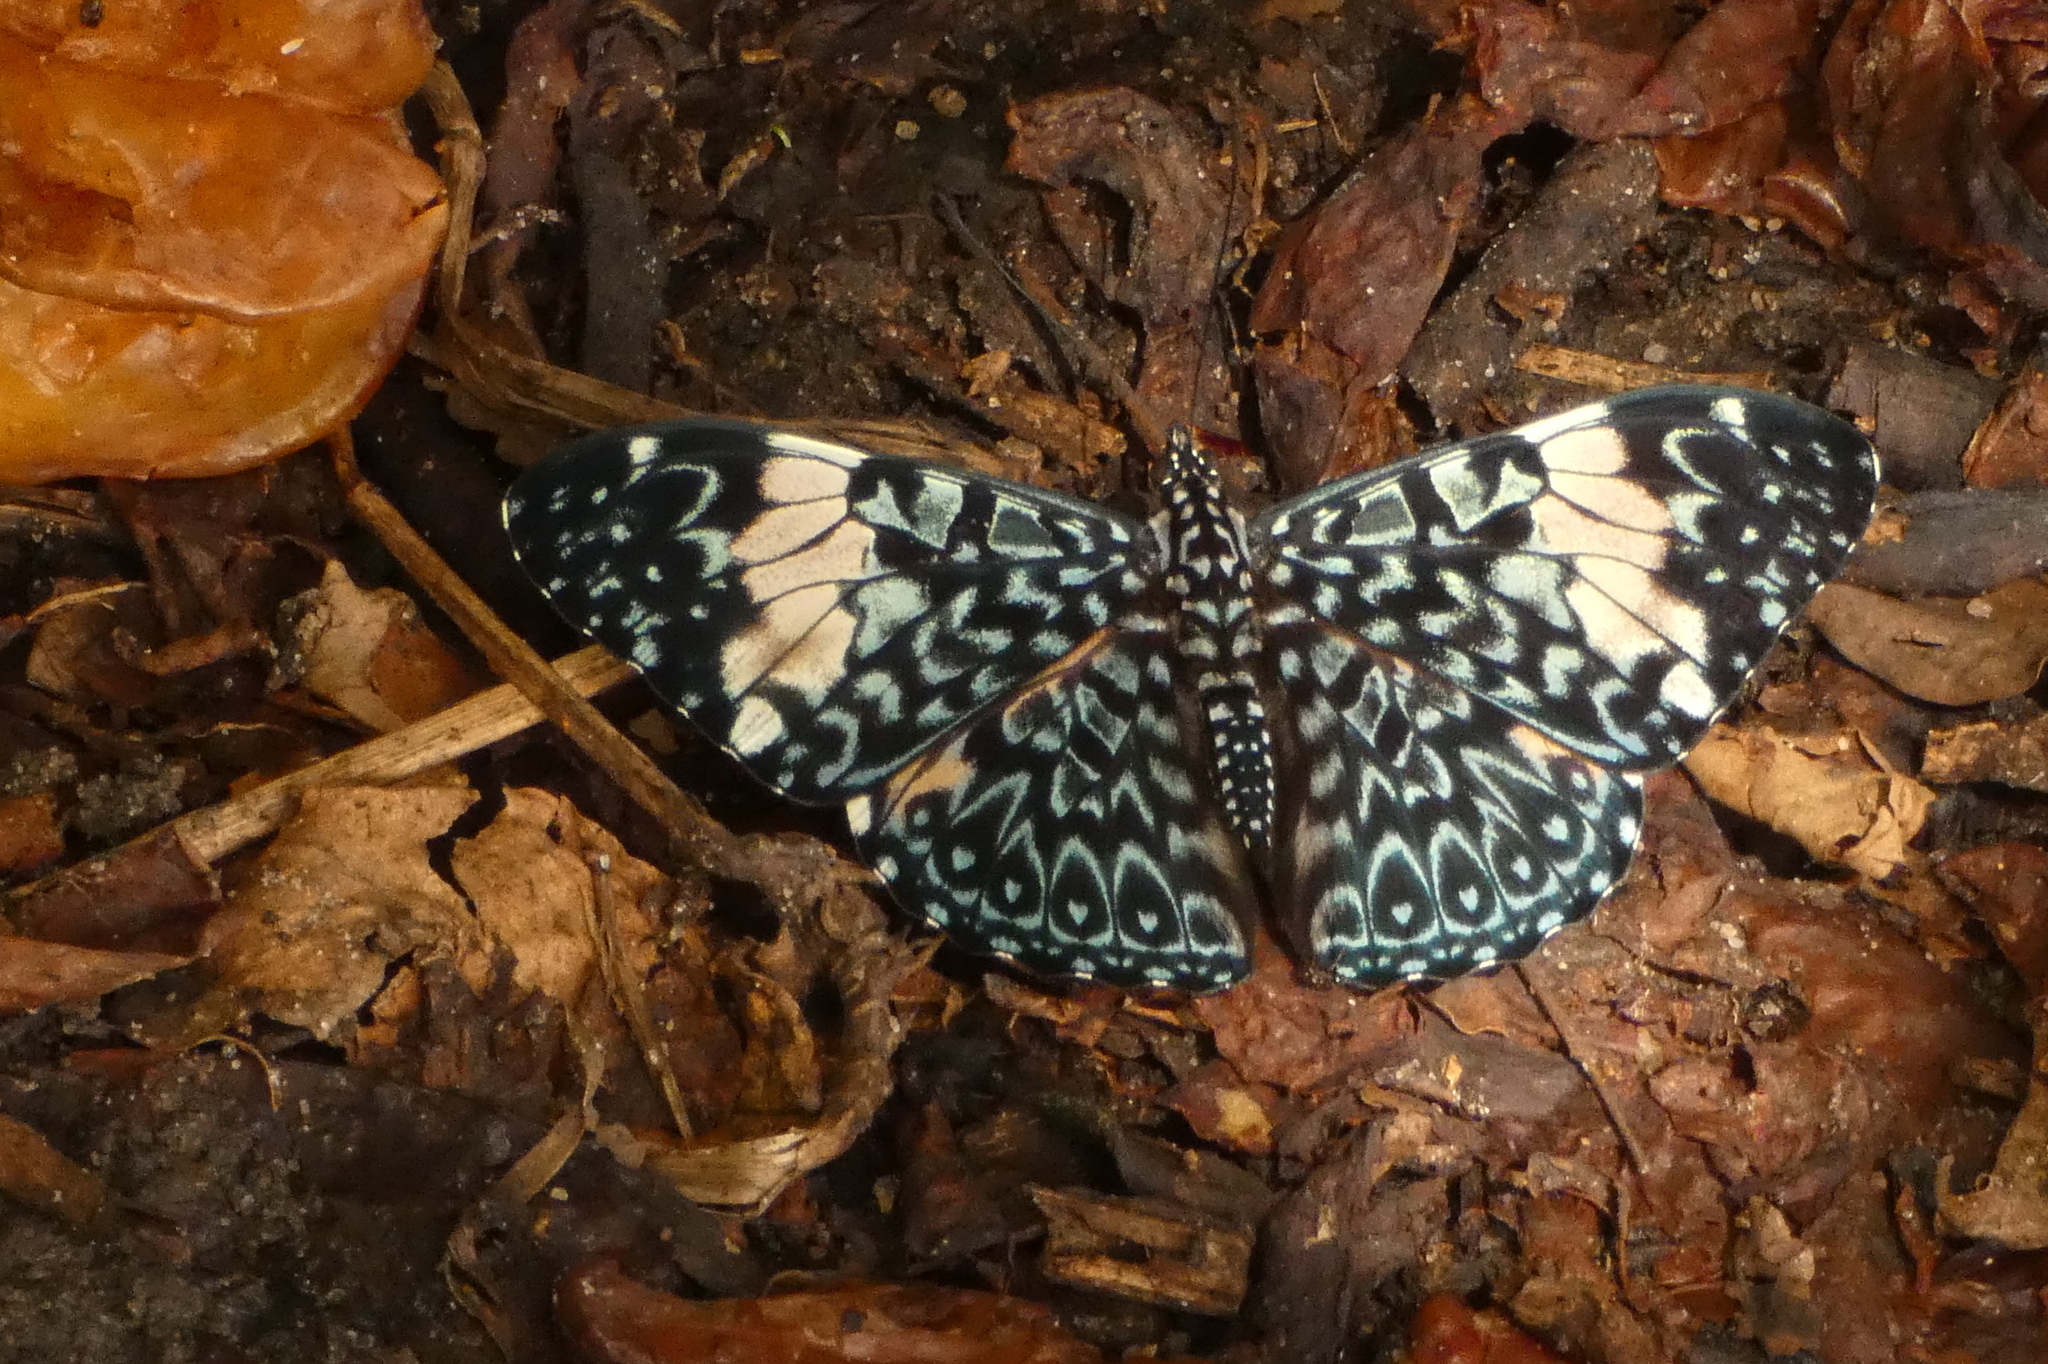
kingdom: Animalia
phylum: Arthropoda
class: Insecta
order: Lepidoptera
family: Nymphalidae
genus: Hamadryas
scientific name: Hamadryas amphinome
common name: Red cracker
